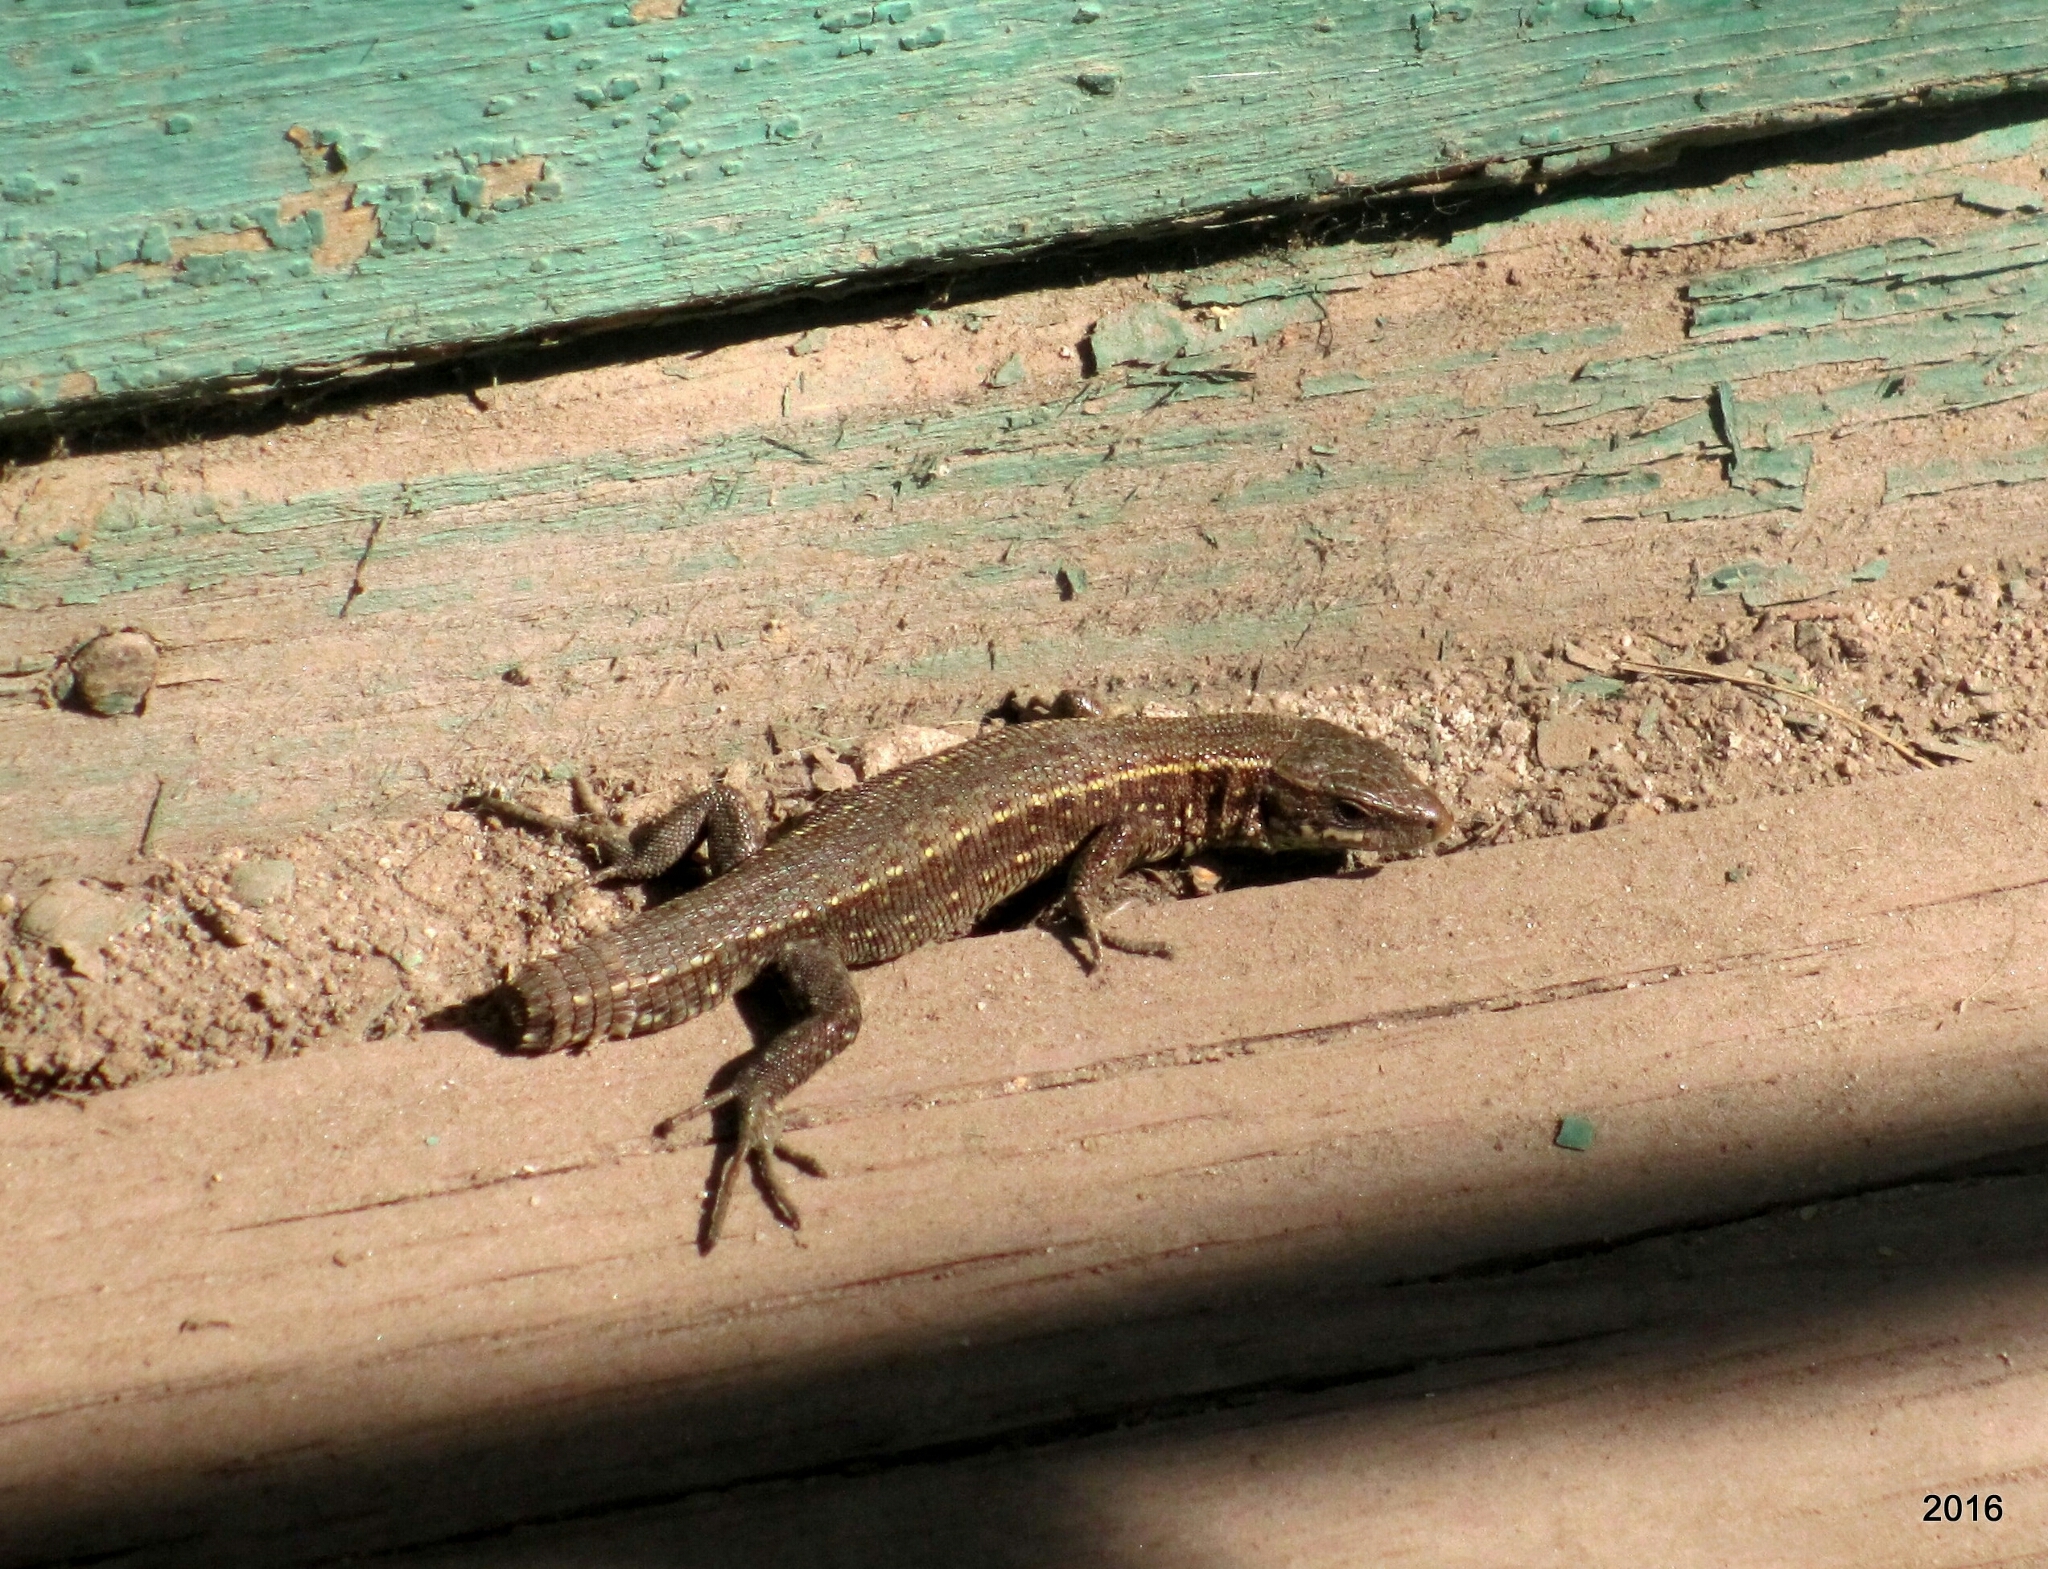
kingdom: Animalia
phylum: Chordata
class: Squamata
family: Lacertidae
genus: Zootoca
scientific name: Zootoca vivipara
